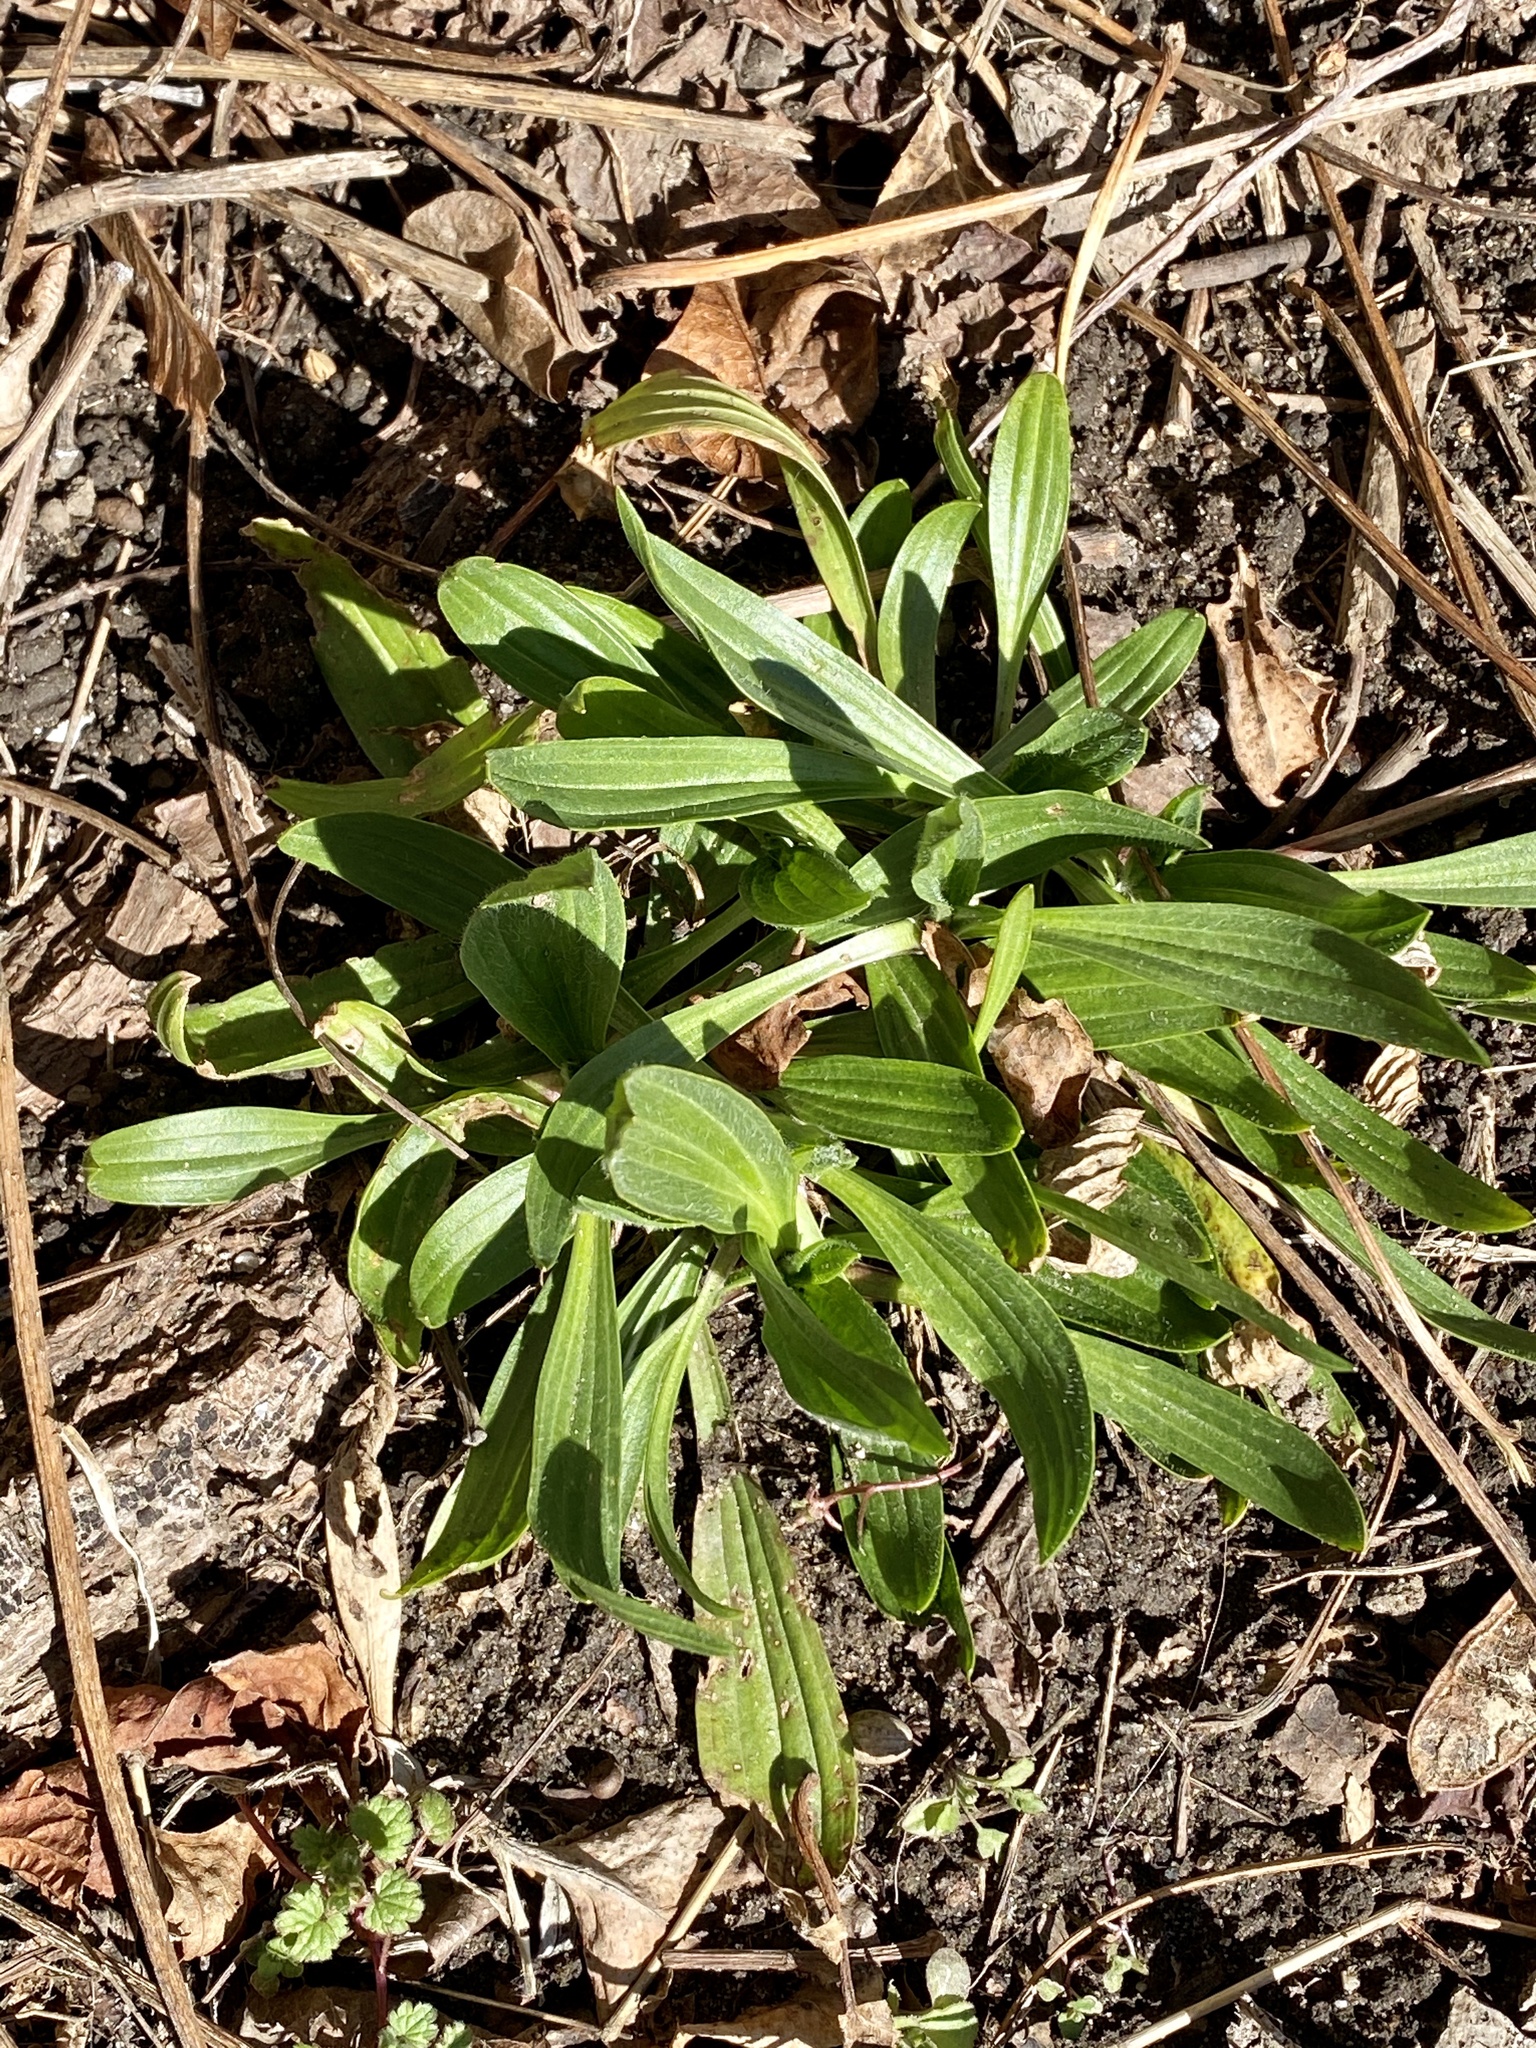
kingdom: Plantae
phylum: Tracheophyta
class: Magnoliopsida
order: Lamiales
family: Plantaginaceae
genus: Plantago
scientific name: Plantago lanceolata
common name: Ribwort plantain
